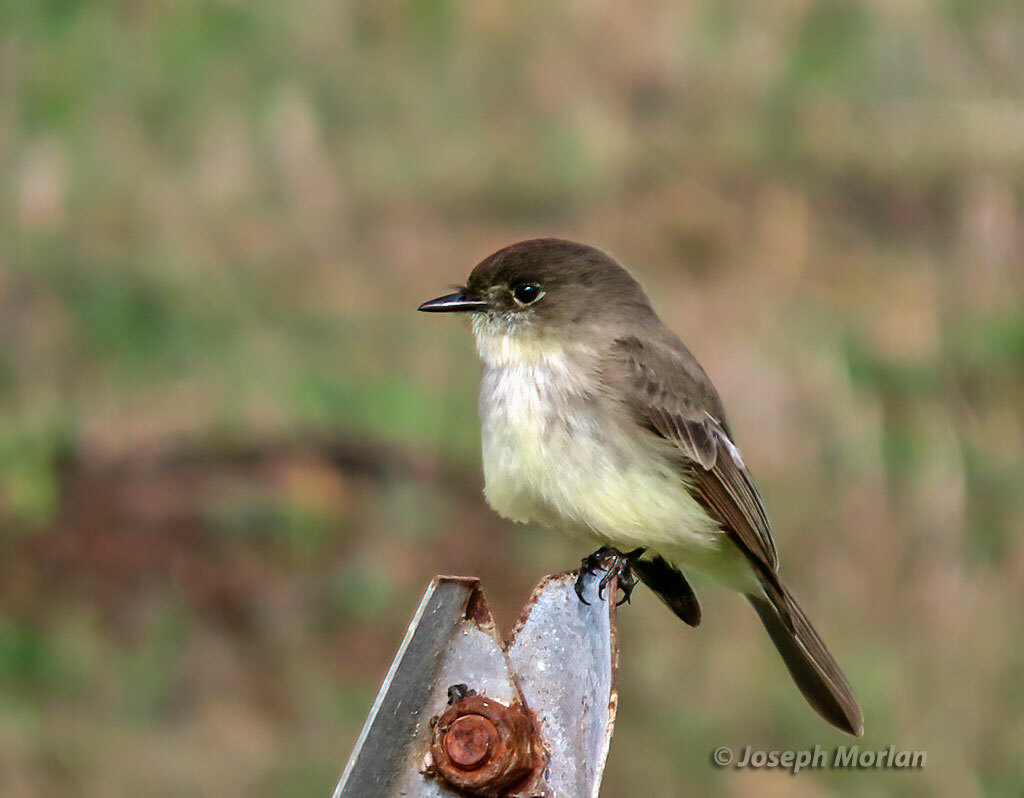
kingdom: Animalia
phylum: Chordata
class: Aves
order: Passeriformes
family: Tyrannidae
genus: Sayornis
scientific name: Sayornis phoebe
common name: Eastern phoebe
